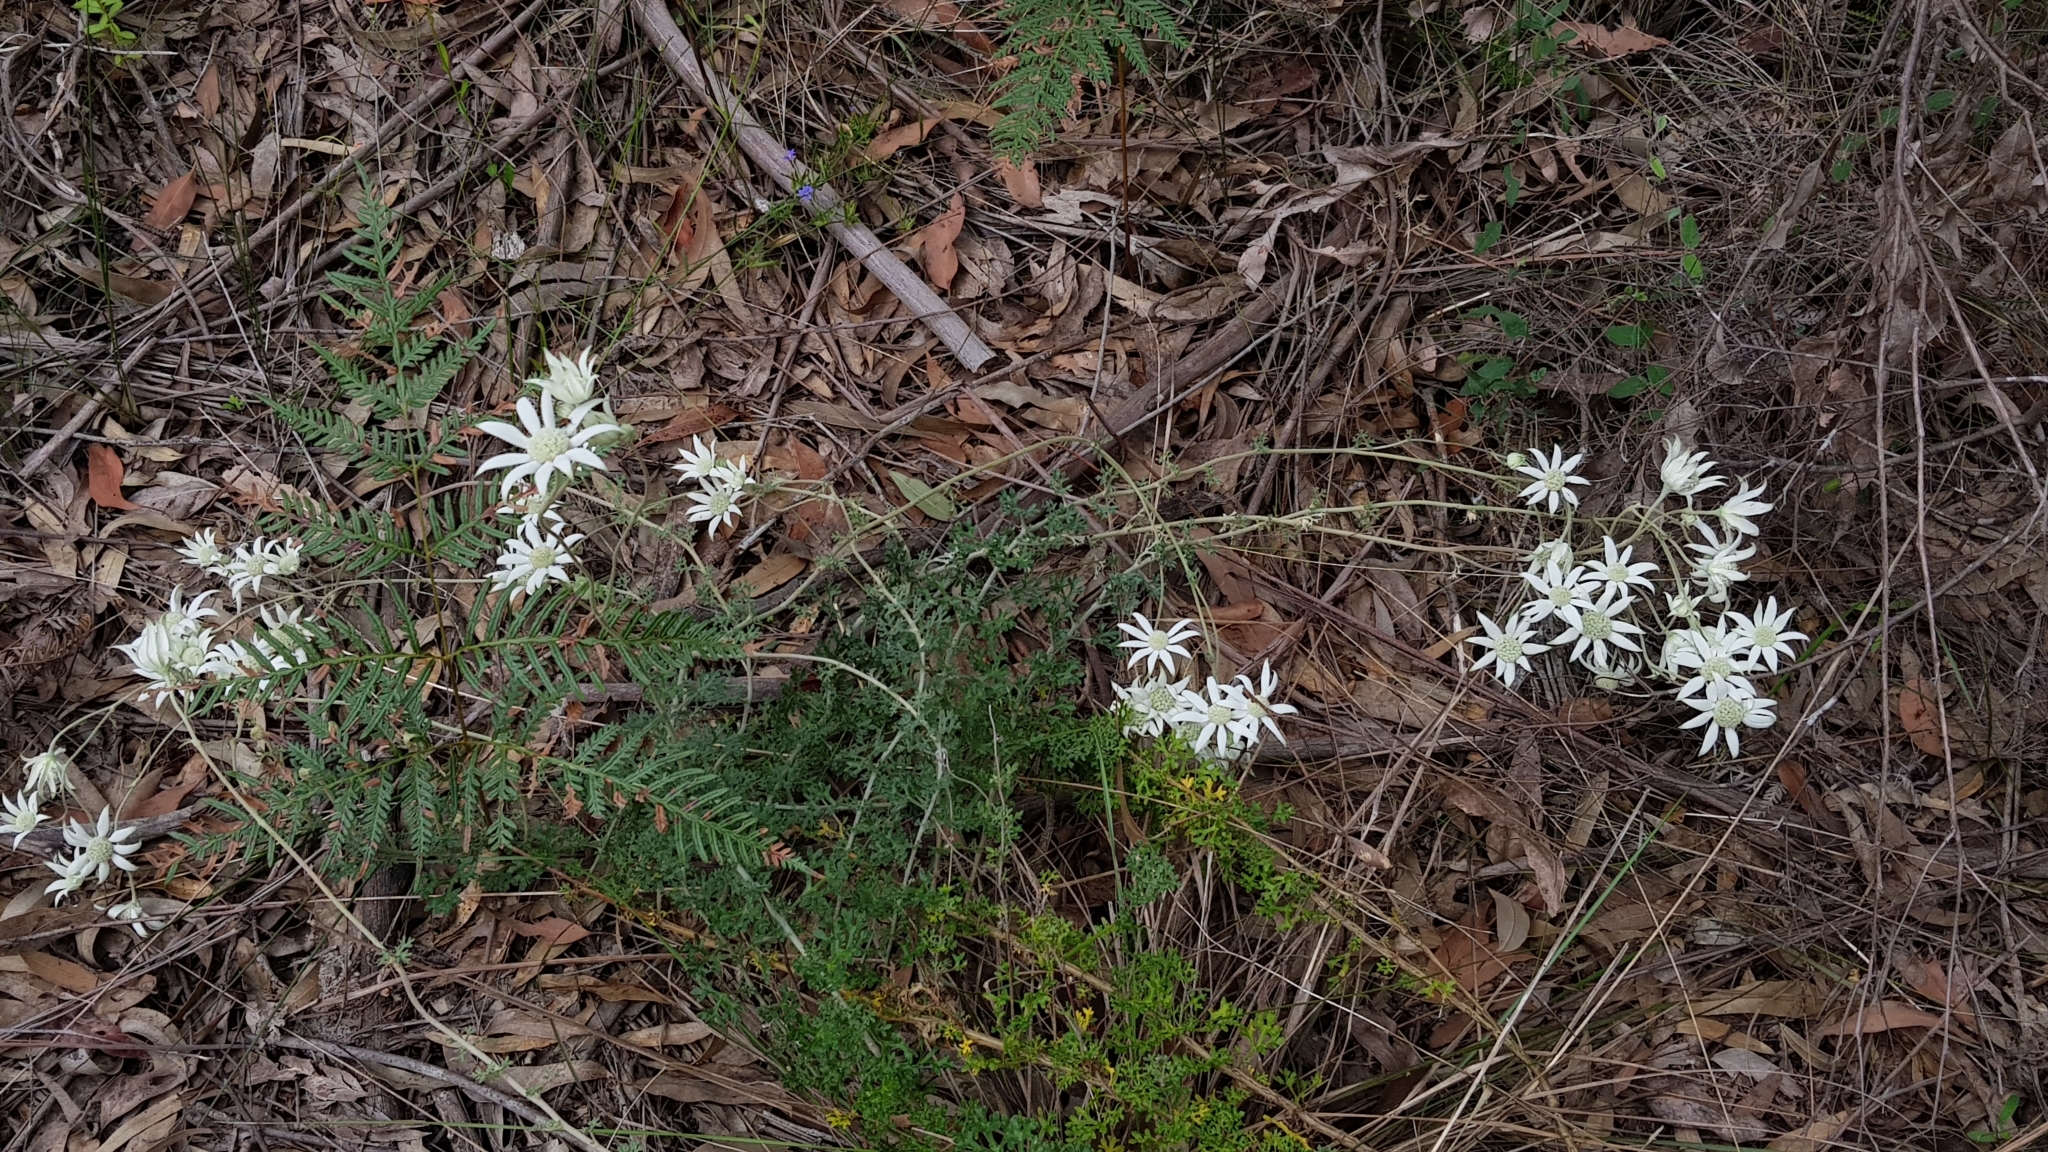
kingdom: Plantae
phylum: Tracheophyta
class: Magnoliopsida
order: Apiales
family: Apiaceae
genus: Actinotus
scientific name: Actinotus helianthi
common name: Flannel-flower
